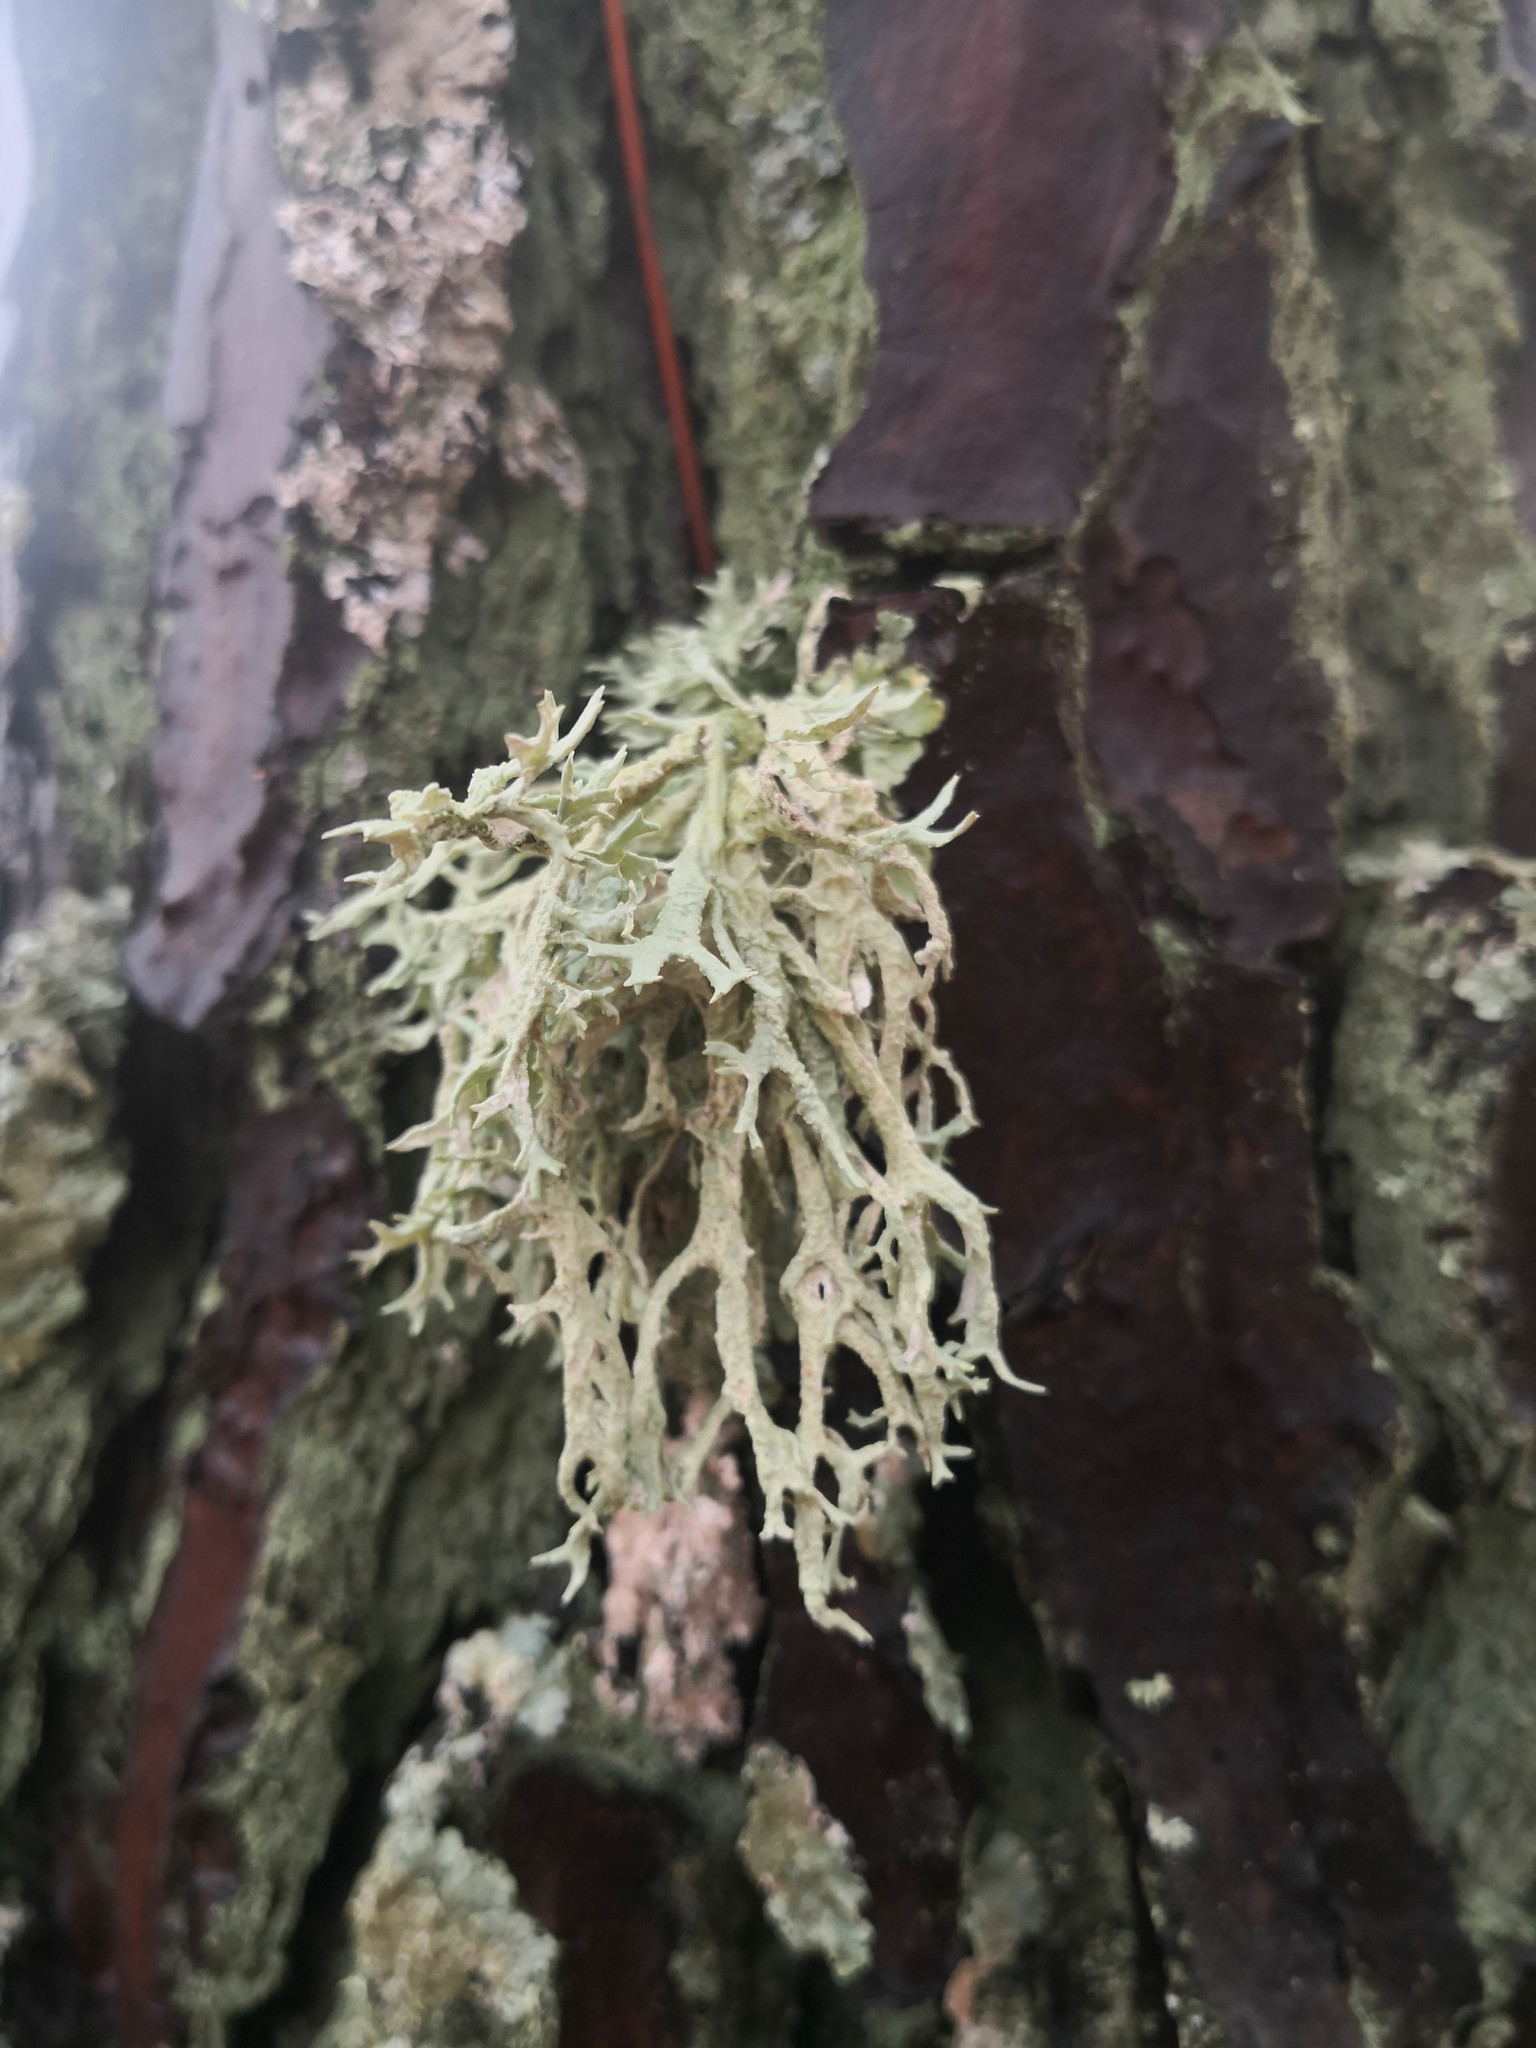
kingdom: Fungi
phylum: Ascomycota
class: Lecanoromycetes
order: Lecanorales
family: Parmeliaceae
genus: Evernia
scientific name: Evernia prunastri
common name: Oak moss
